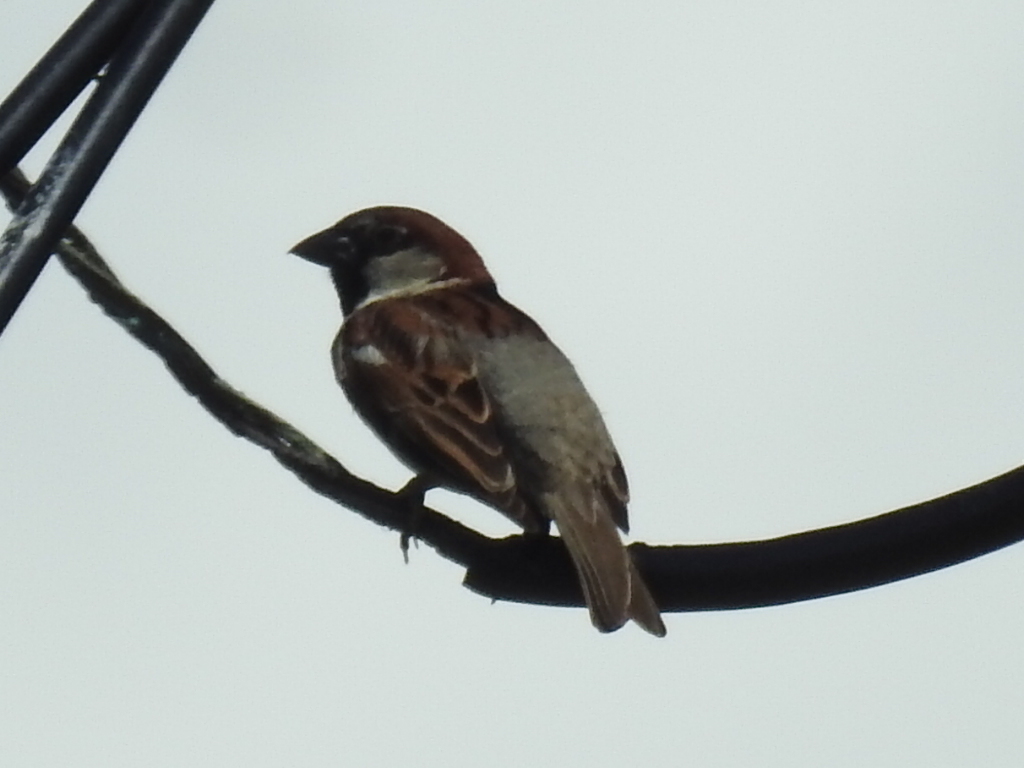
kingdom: Animalia
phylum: Chordata
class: Aves
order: Passeriformes
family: Passeridae
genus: Passer
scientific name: Passer domesticus
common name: House sparrow
